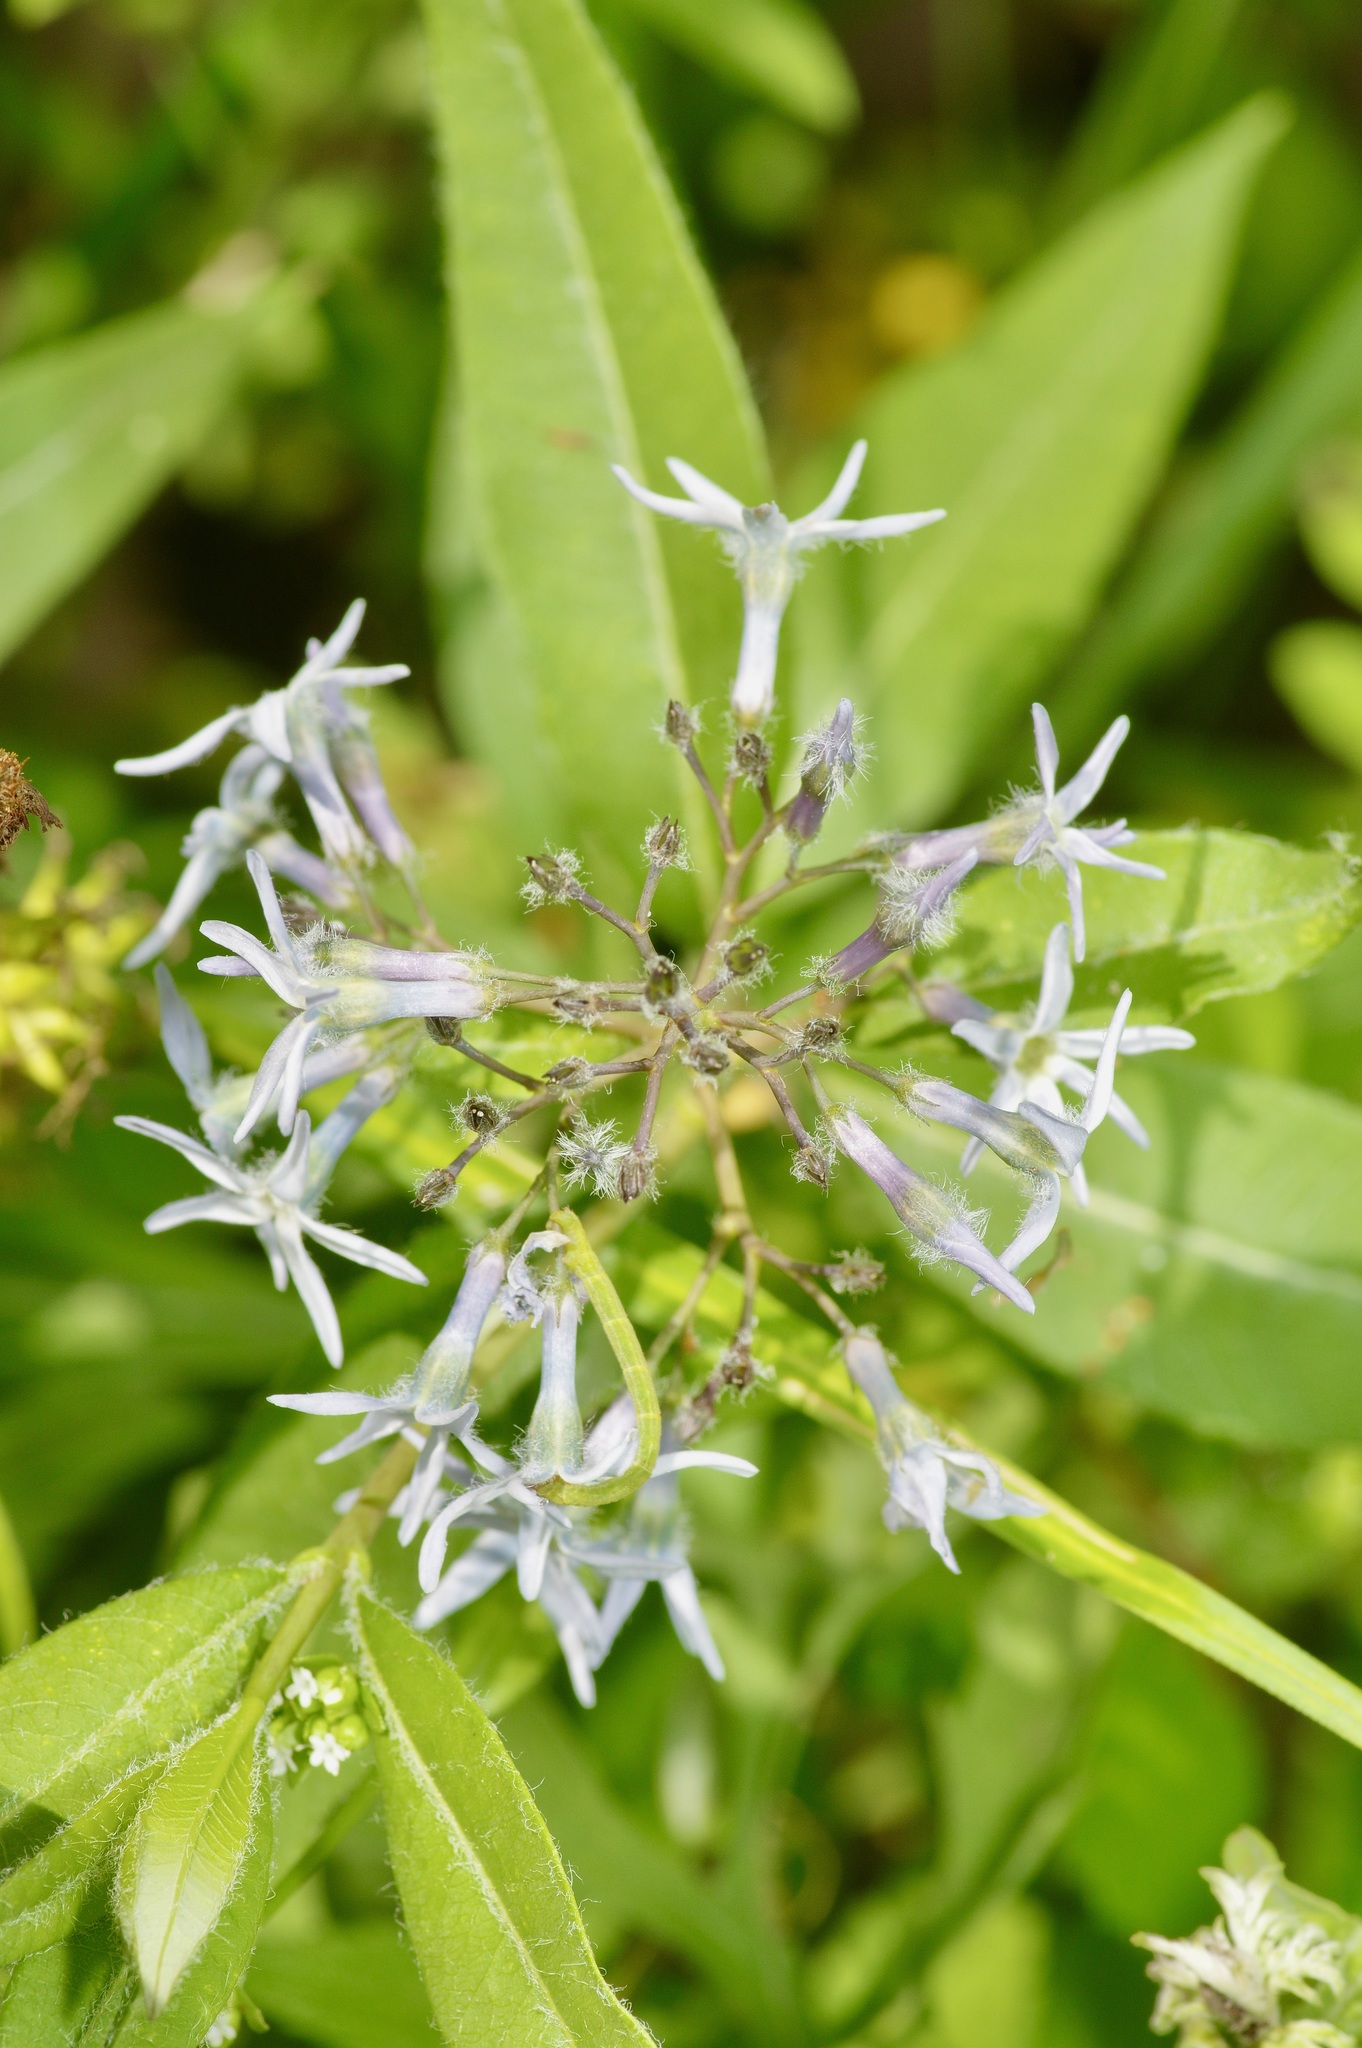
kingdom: Plantae
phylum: Tracheophyta
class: Magnoliopsida
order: Gentianales
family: Apocynaceae
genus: Amsonia
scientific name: Amsonia tabernaemontana
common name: Texas-star
